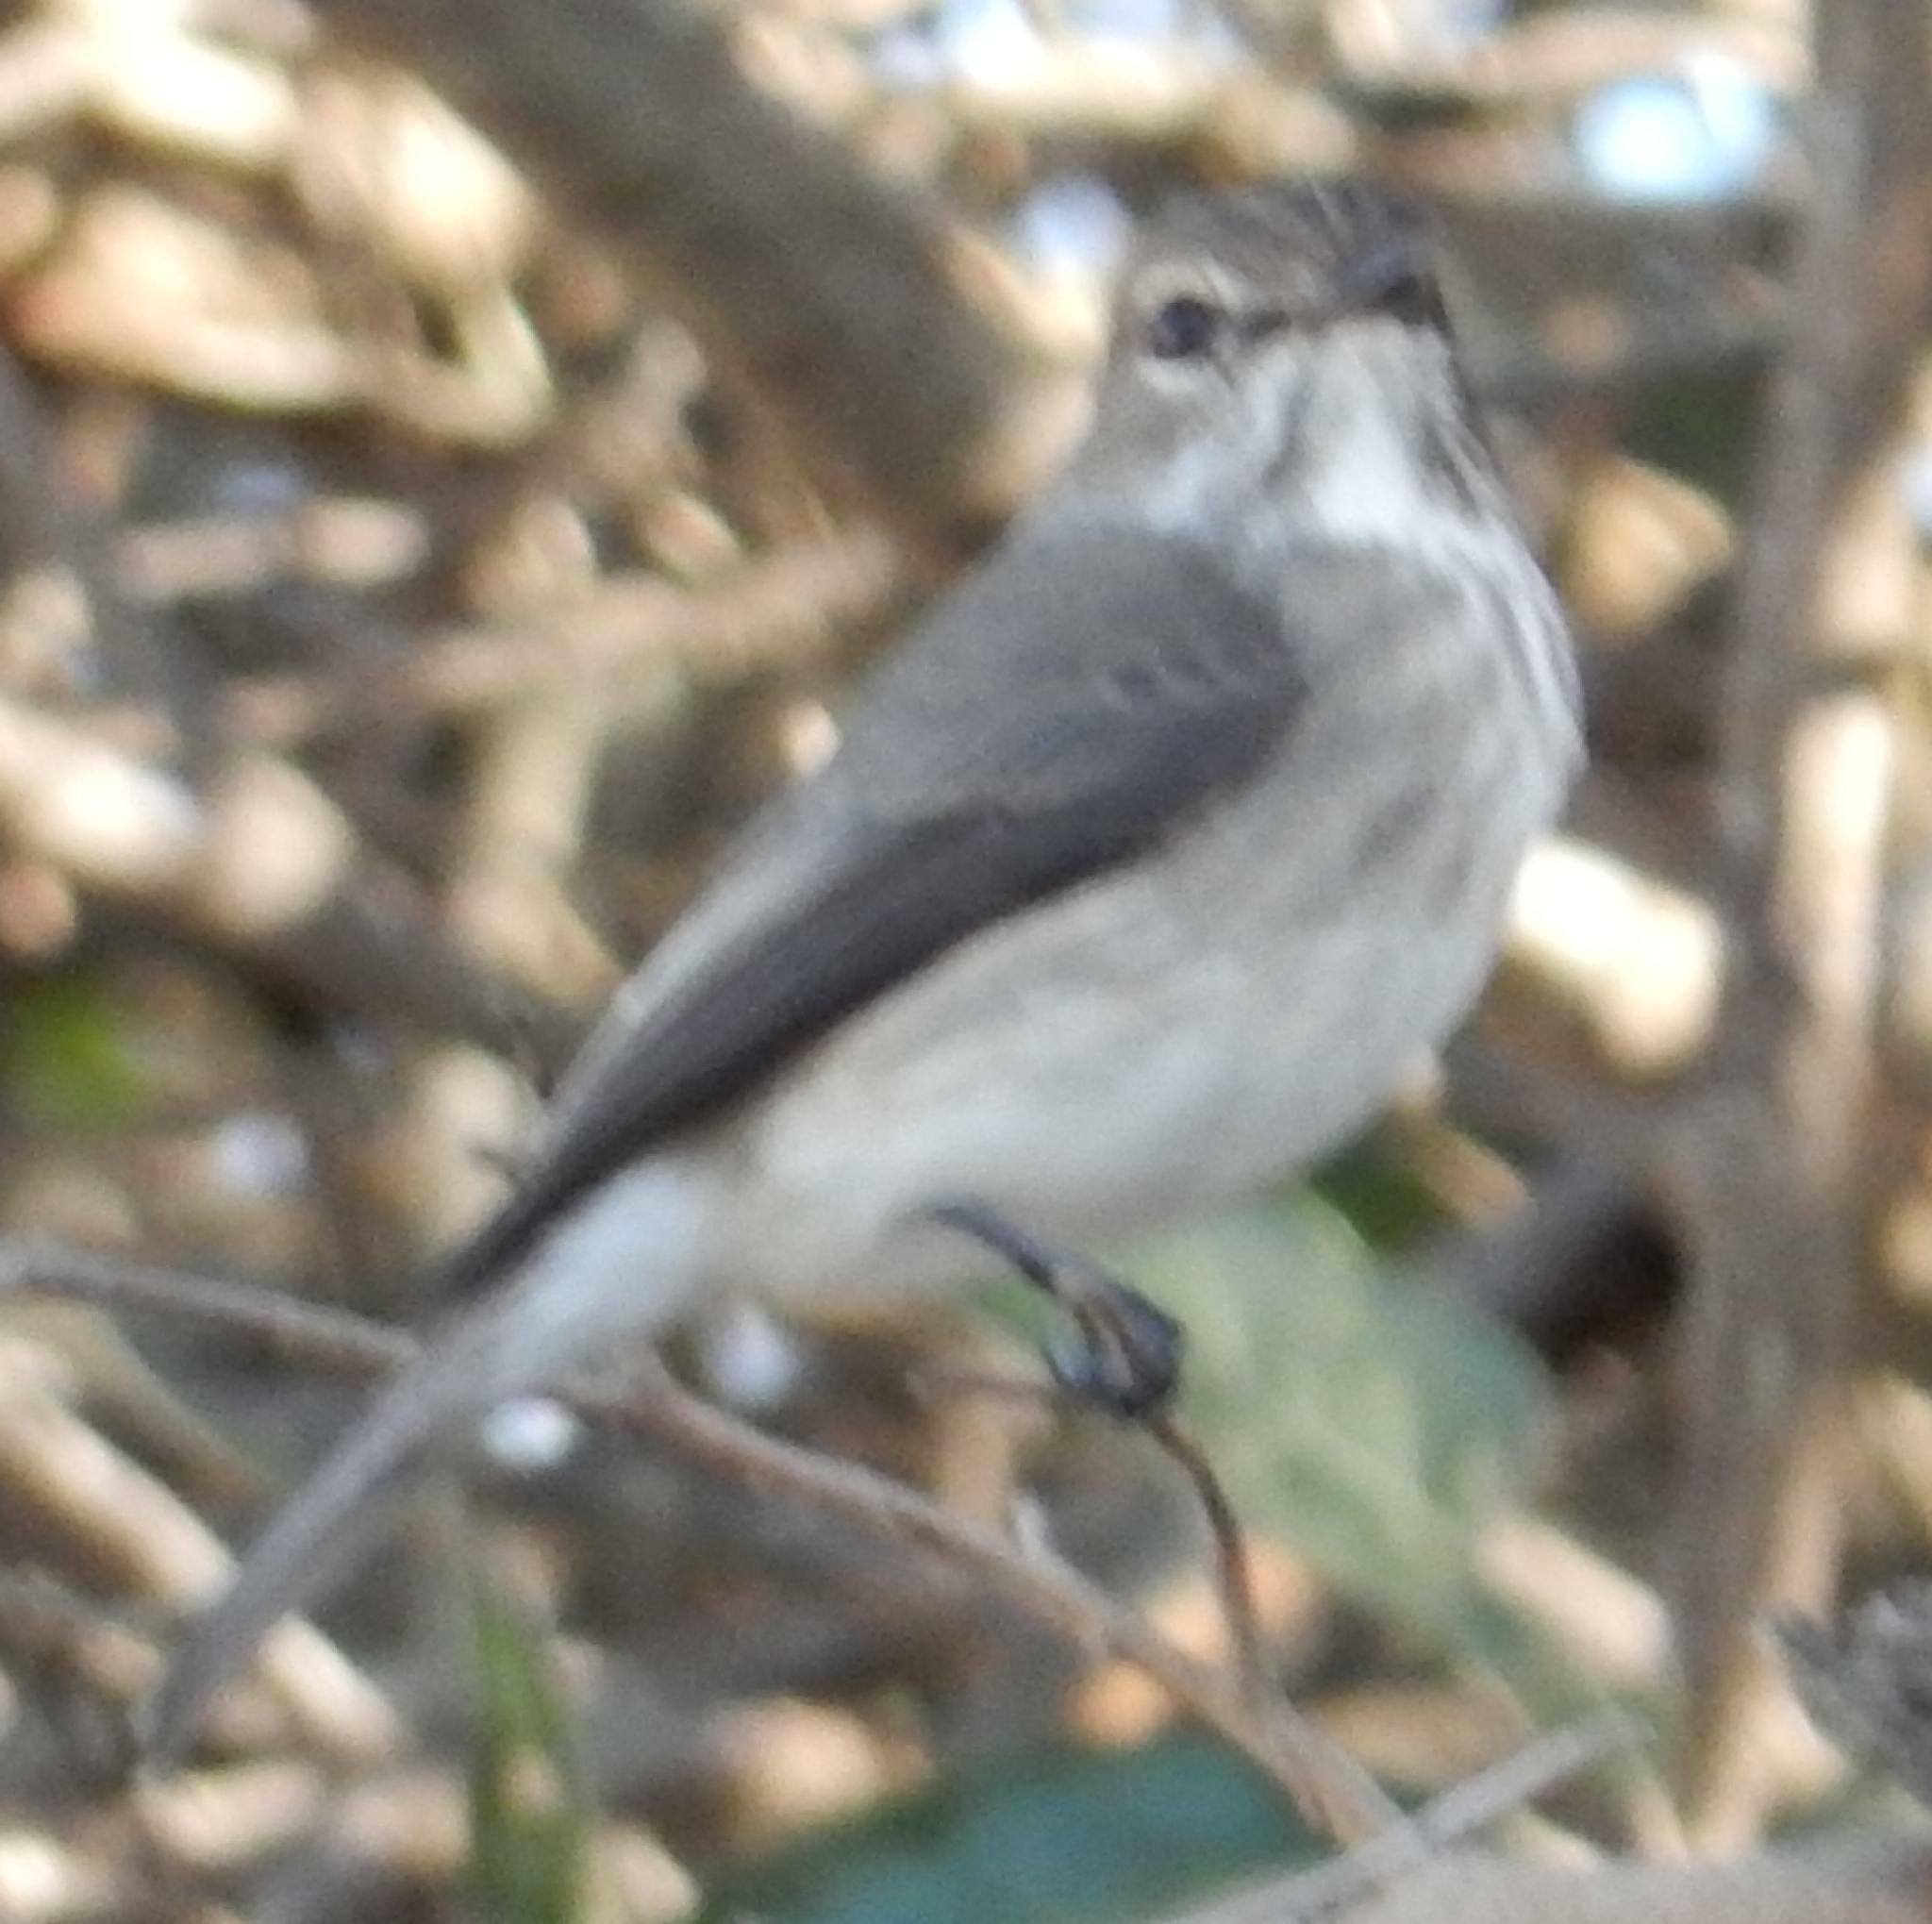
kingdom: Animalia
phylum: Chordata
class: Aves
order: Passeriformes
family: Muscicapidae
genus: Muscicapa
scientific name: Muscicapa adusta
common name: African dusky flycatcher
